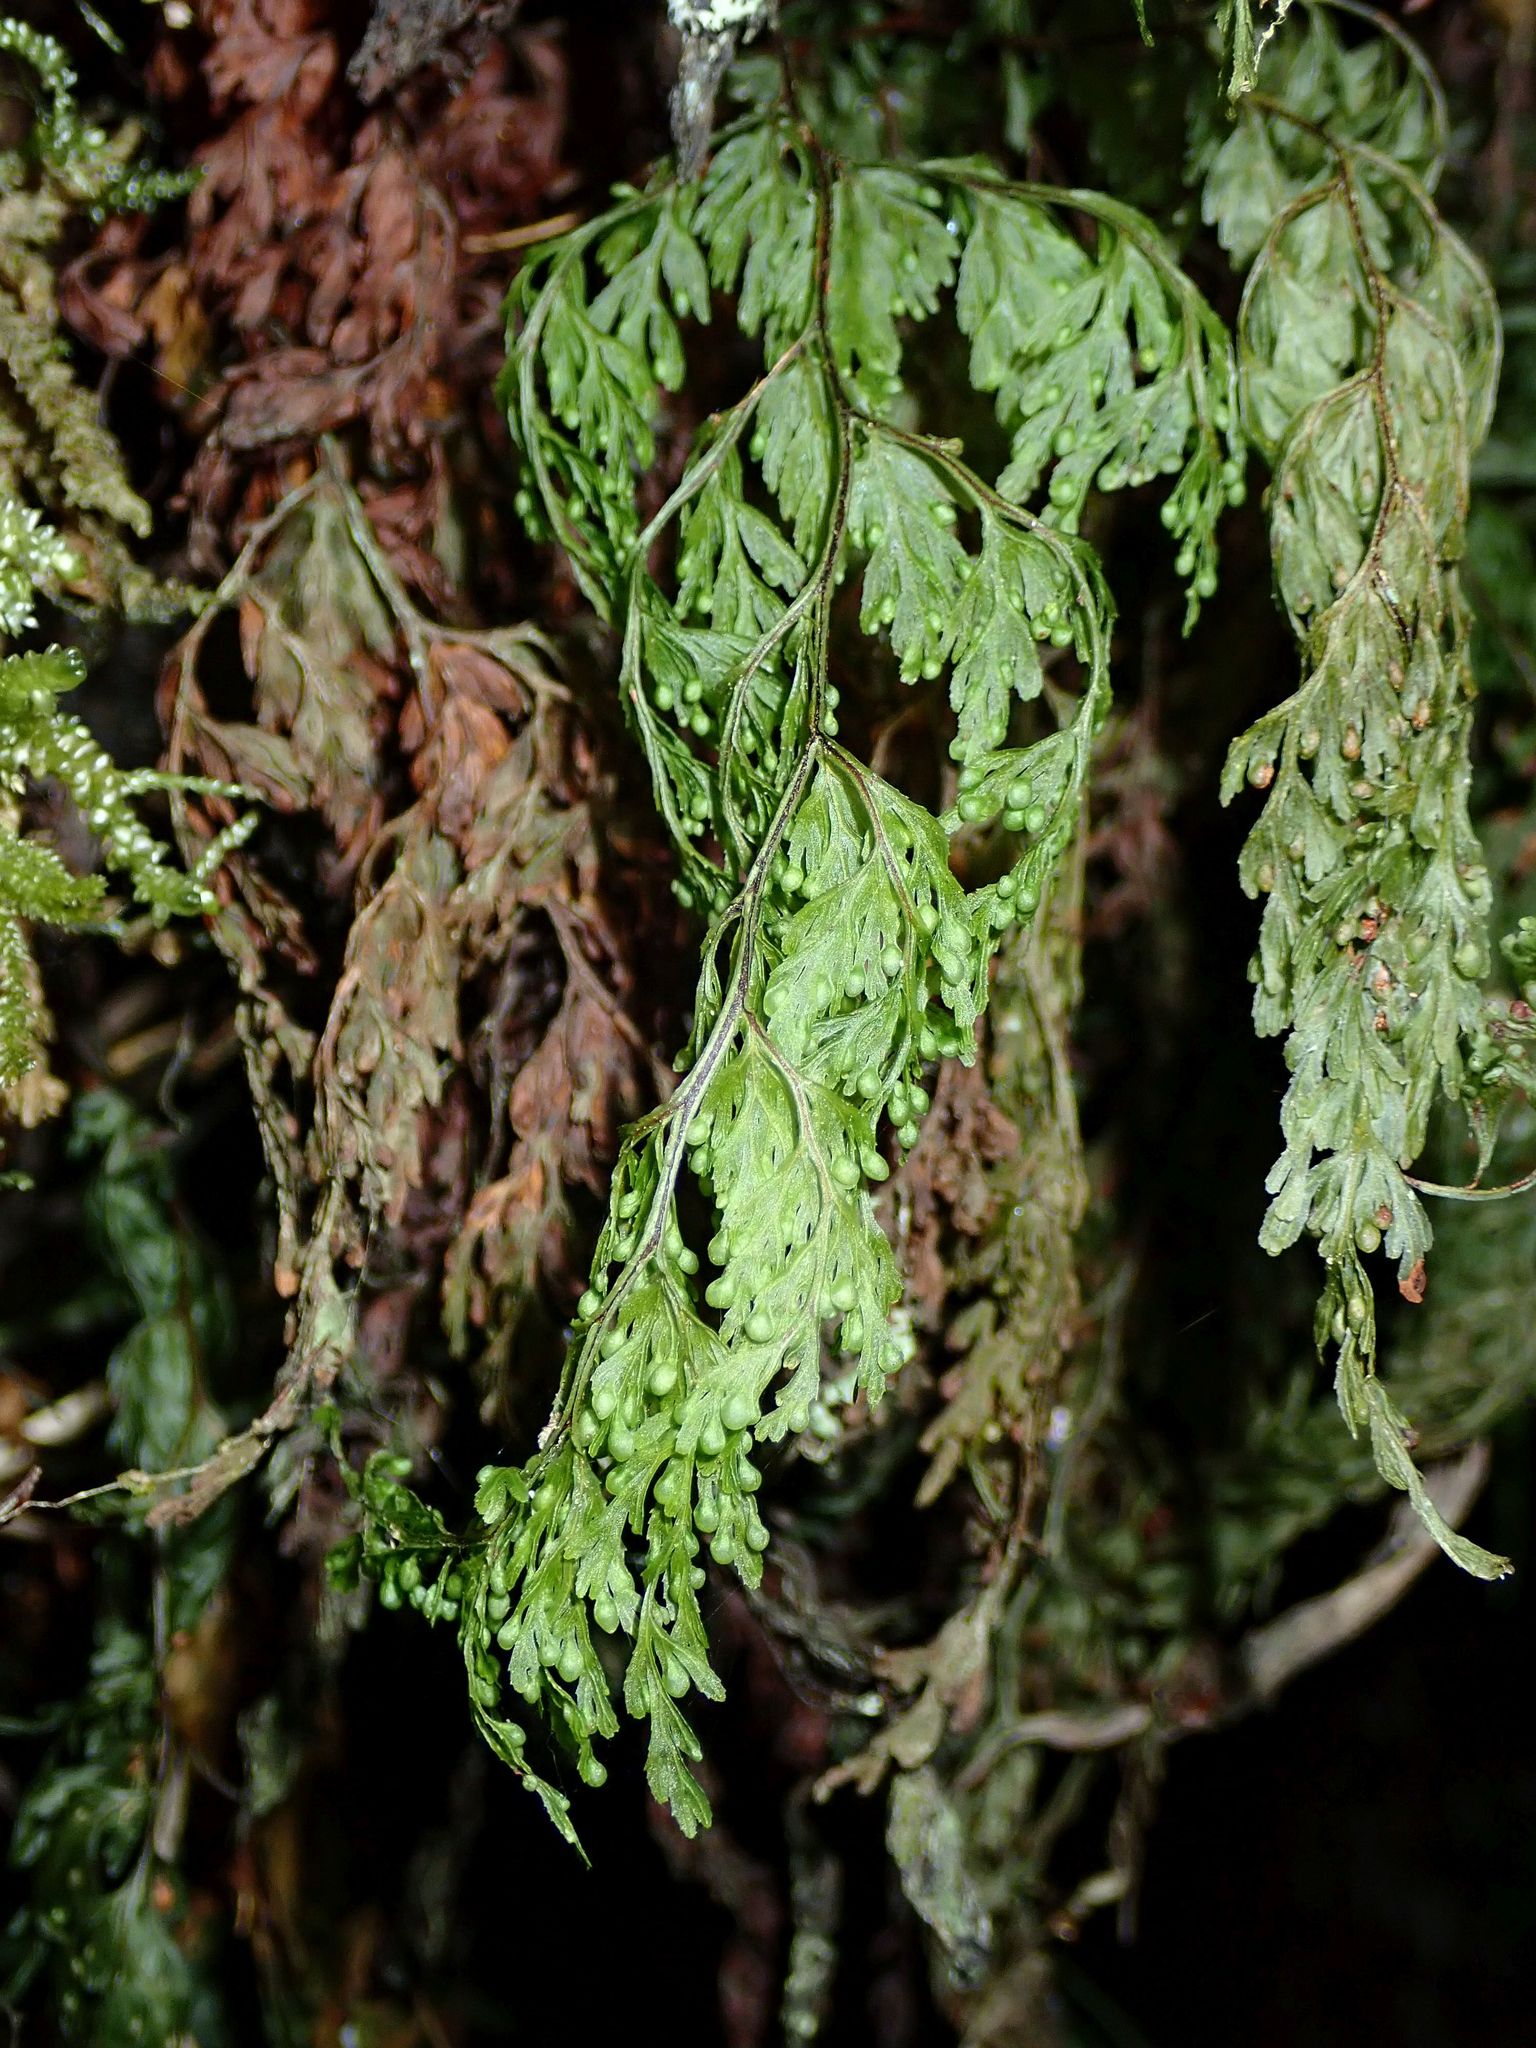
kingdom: Plantae
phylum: Tracheophyta
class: Polypodiopsida
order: Hymenophyllales
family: Hymenophyllaceae
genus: Hymenophyllum
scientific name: Hymenophyllum bivalve
